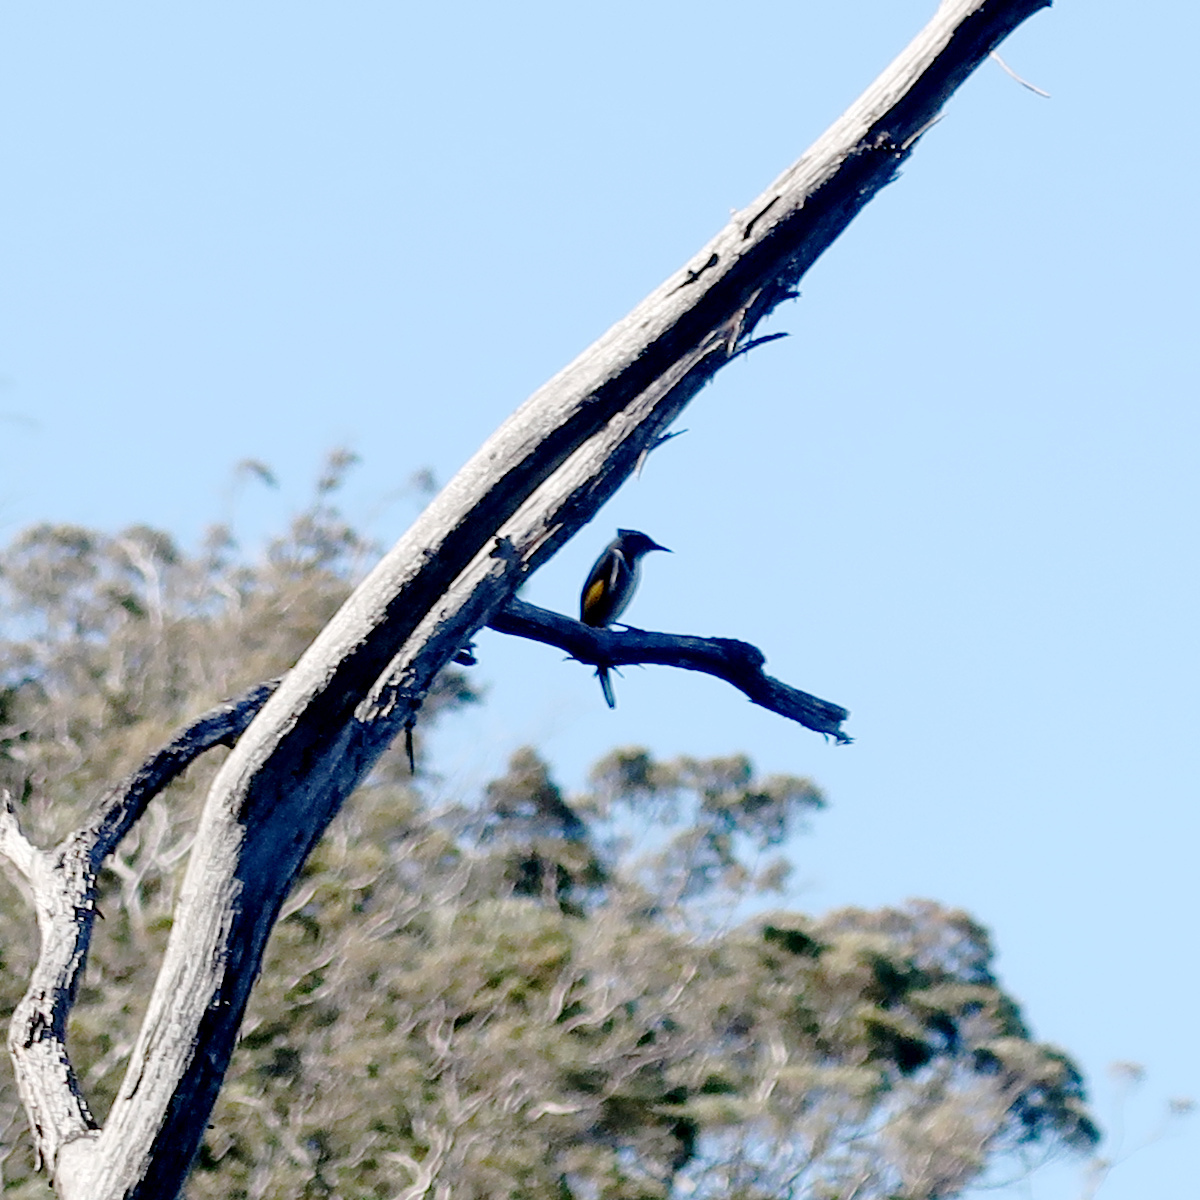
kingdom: Animalia
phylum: Chordata
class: Aves
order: Passeriformes
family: Meliphagidae
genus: Phylidonyris
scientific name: Phylidonyris novaehollandiae
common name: New holland honeyeater
